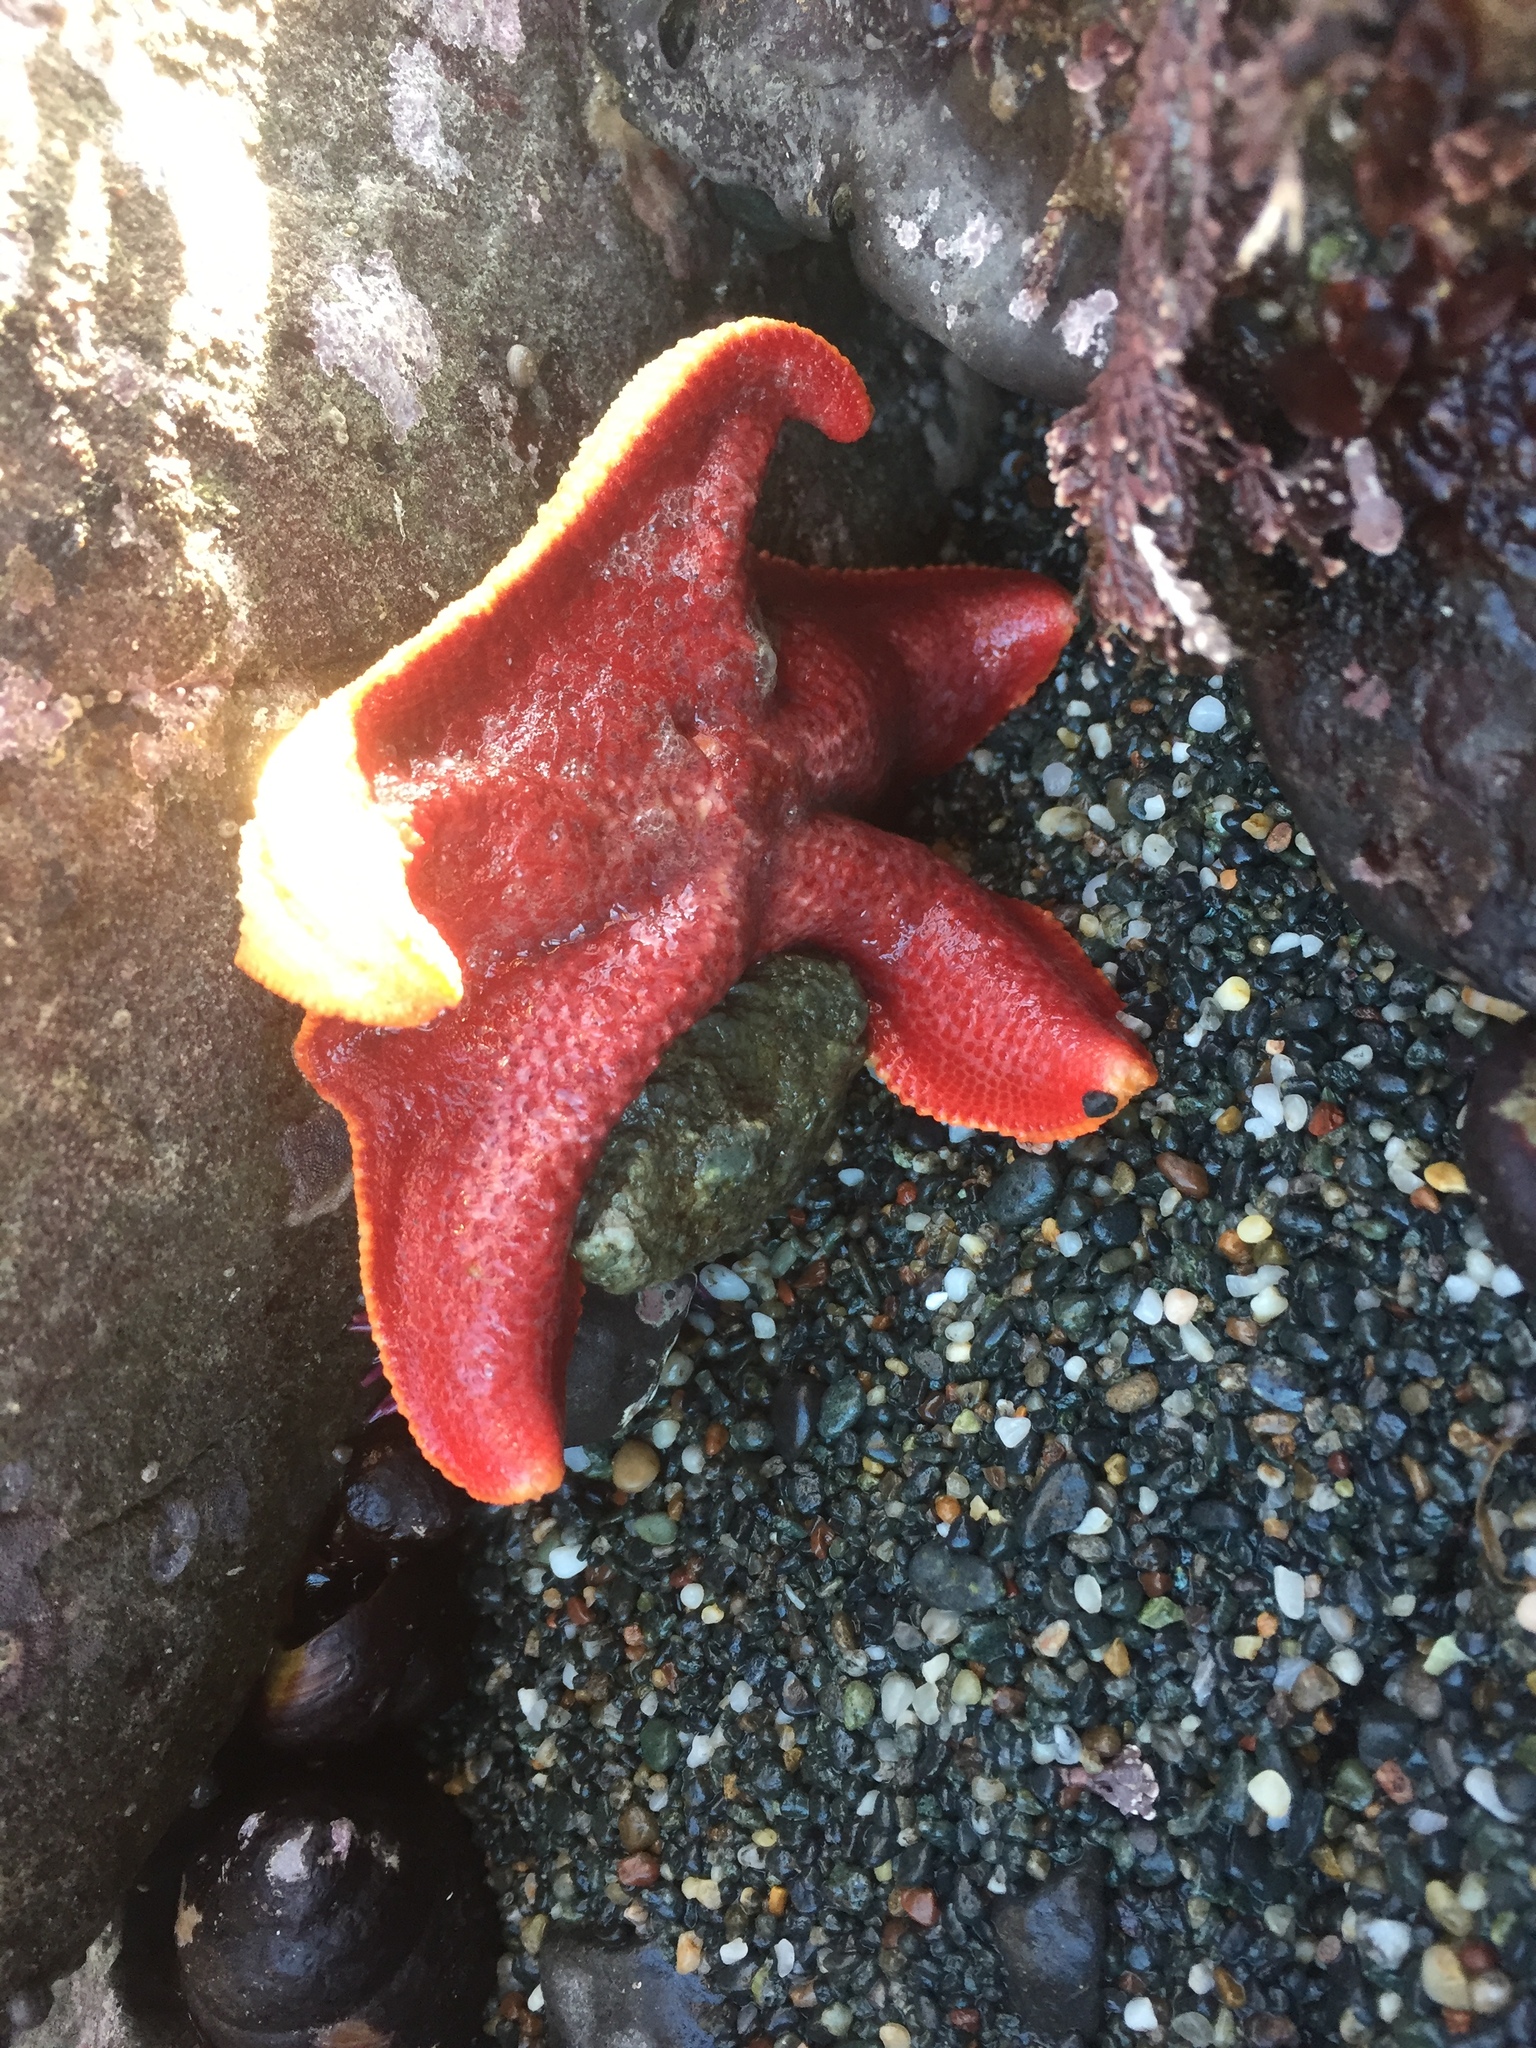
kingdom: Animalia
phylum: Echinodermata
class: Asteroidea
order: Valvatida
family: Asterinidae
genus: Patiria
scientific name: Patiria miniata
